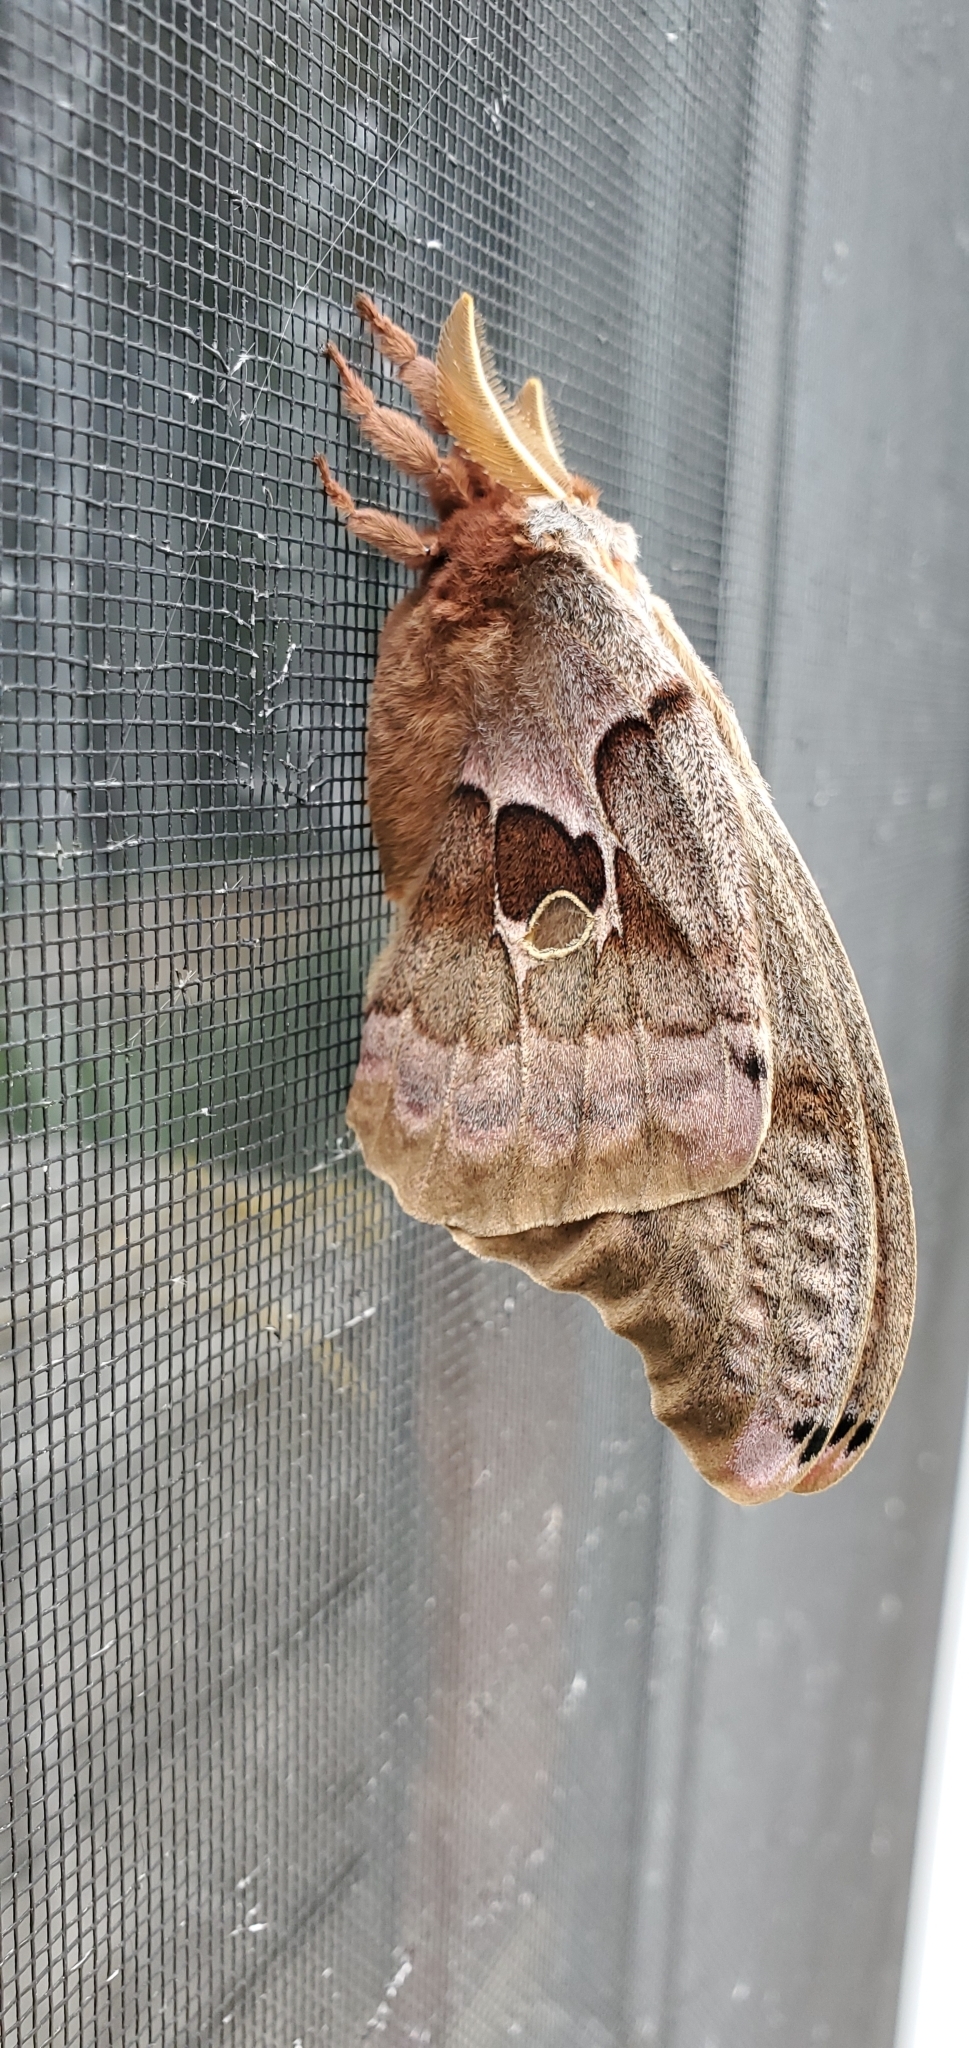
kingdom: Animalia
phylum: Arthropoda
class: Insecta
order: Lepidoptera
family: Saturniidae
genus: Antheraea
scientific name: Antheraea polyphemus
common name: Polyphemus moth
